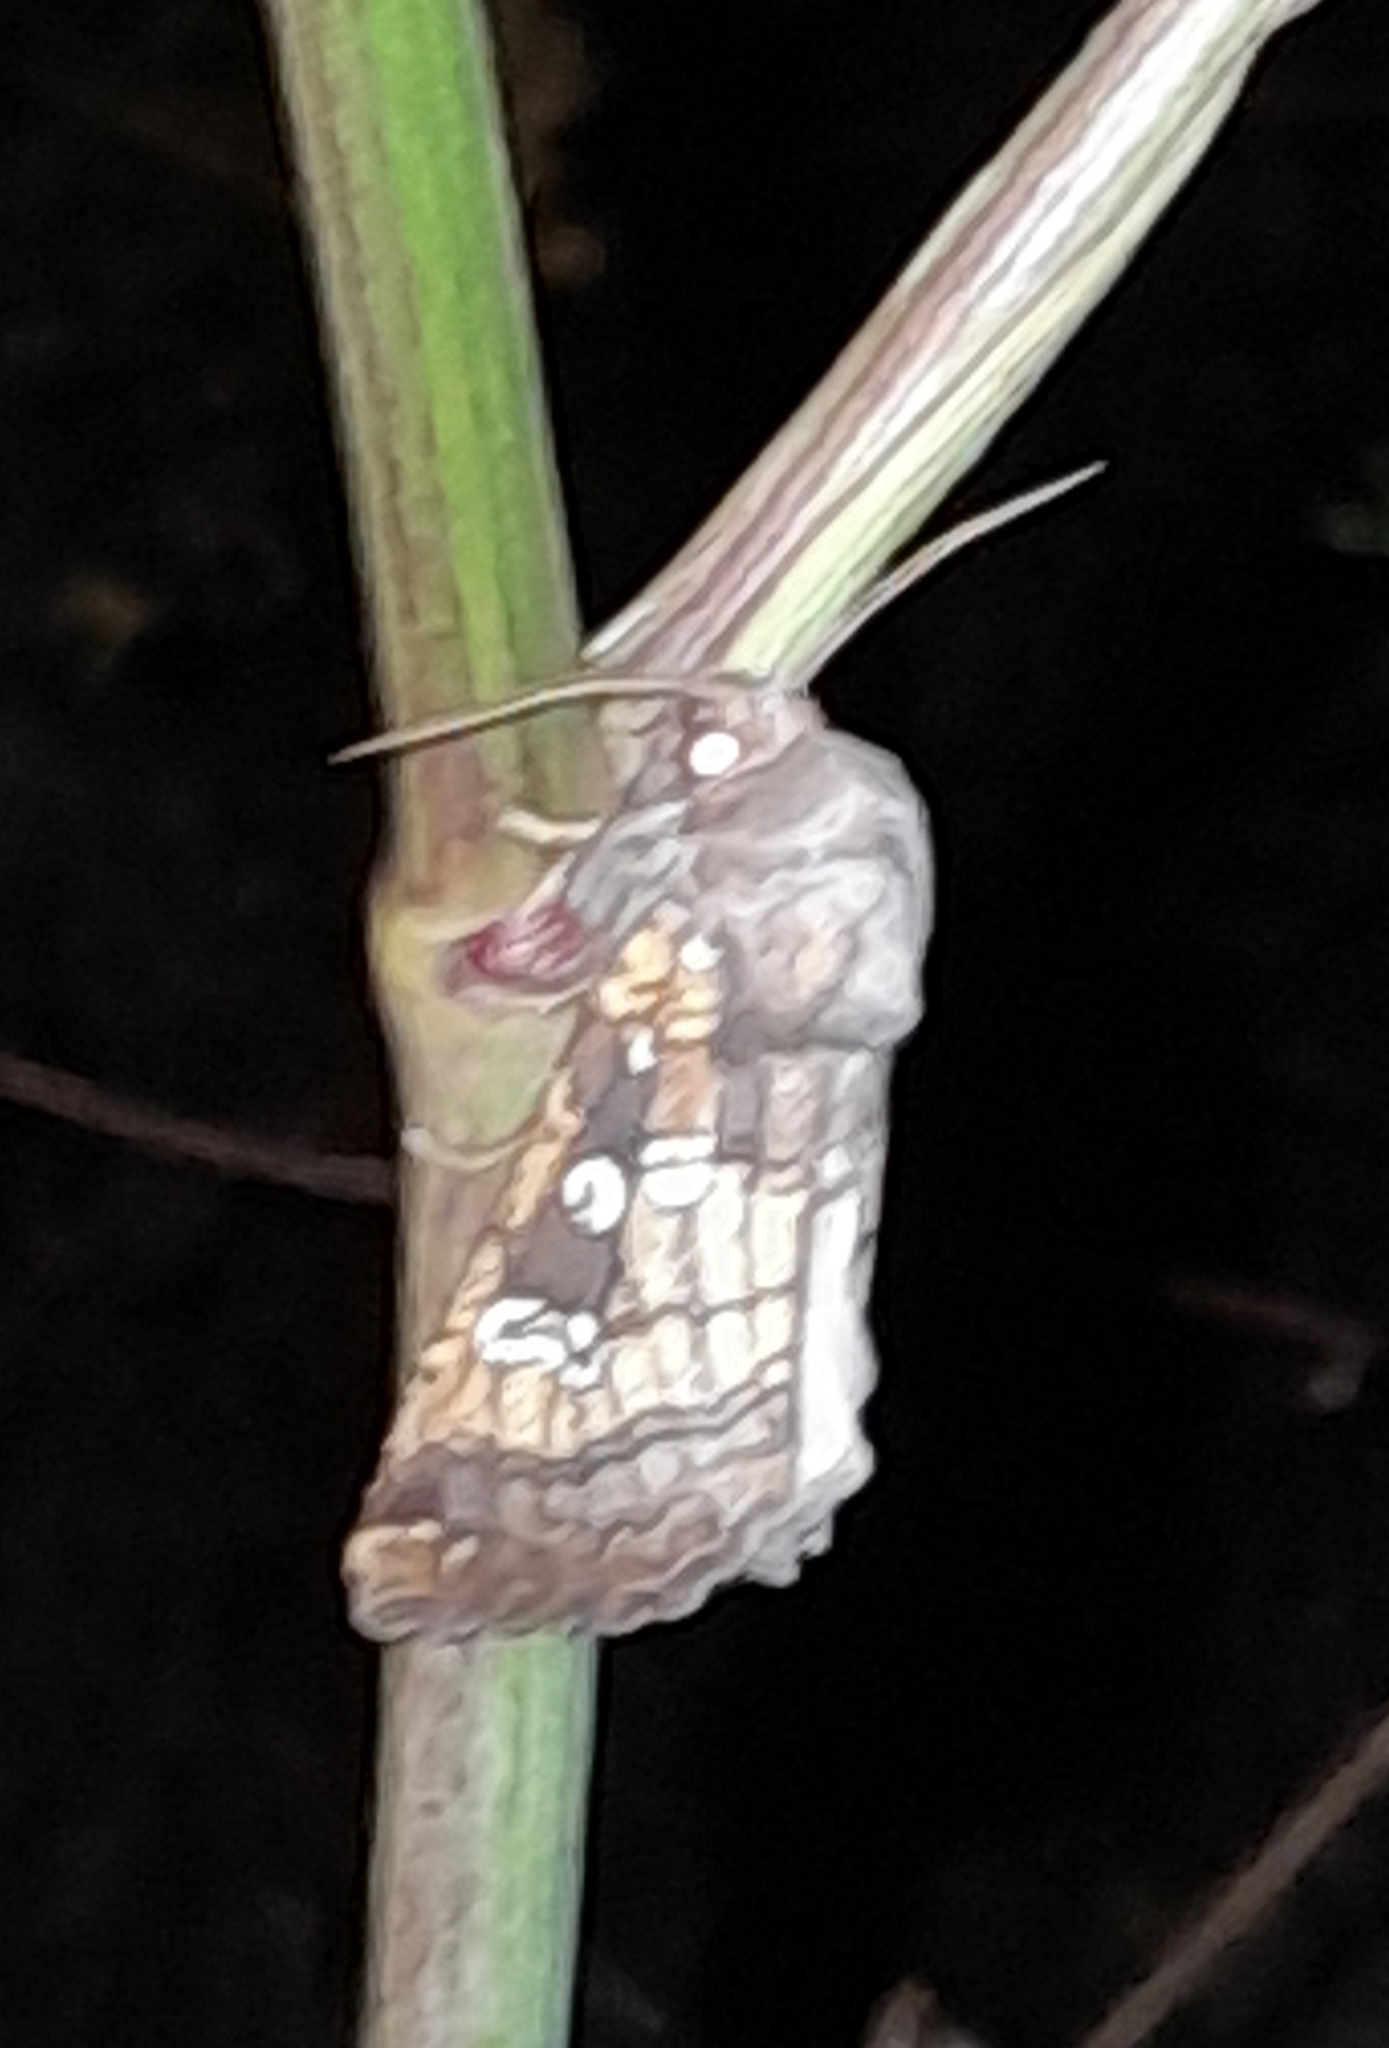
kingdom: Animalia
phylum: Arthropoda
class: Insecta
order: Lepidoptera
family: Noctuidae
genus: Gortyna
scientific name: Gortyna borelii
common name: Fisher's estuarine moth
